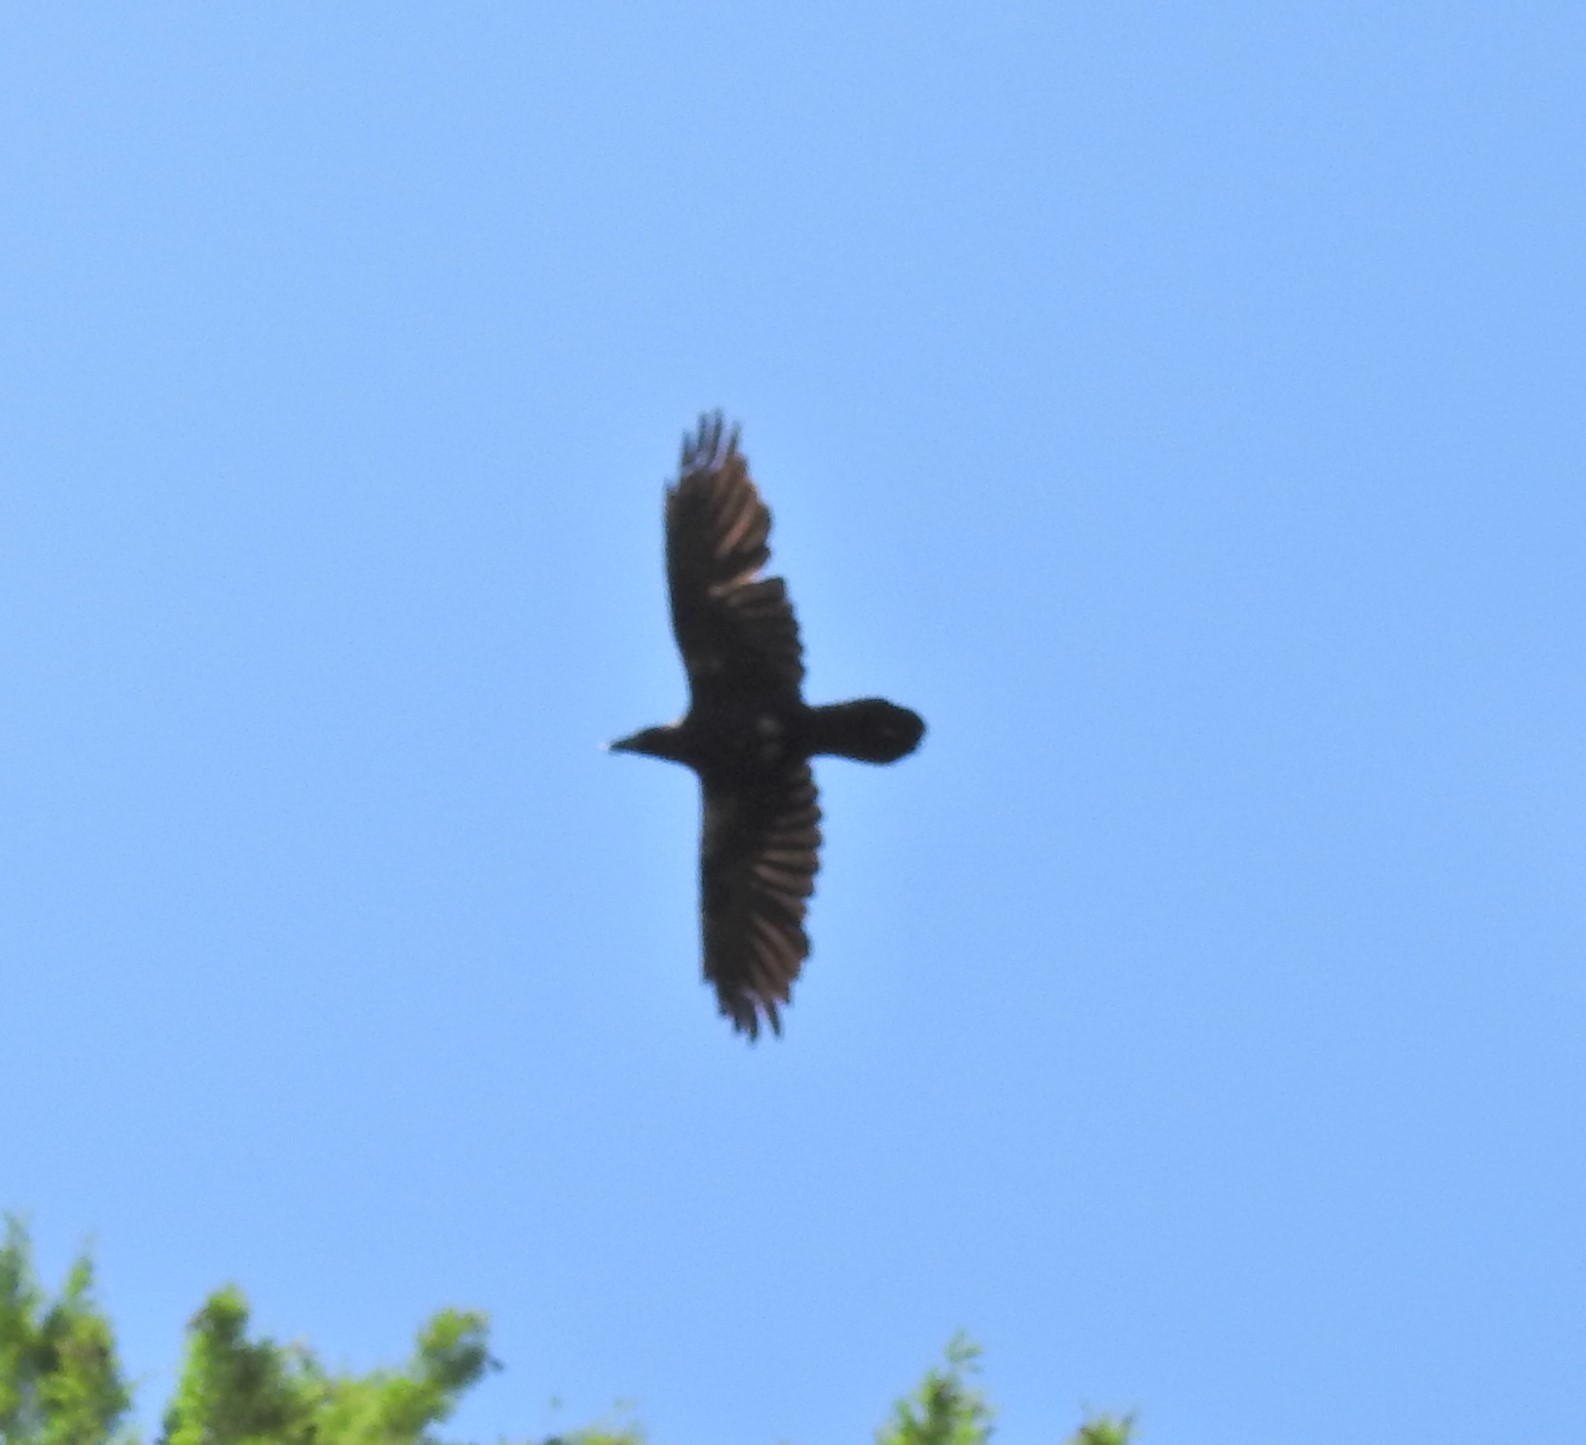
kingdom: Animalia
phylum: Chordata
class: Aves
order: Passeriformes
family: Corvidae
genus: Corvus
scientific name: Corvus corax
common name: Common raven
